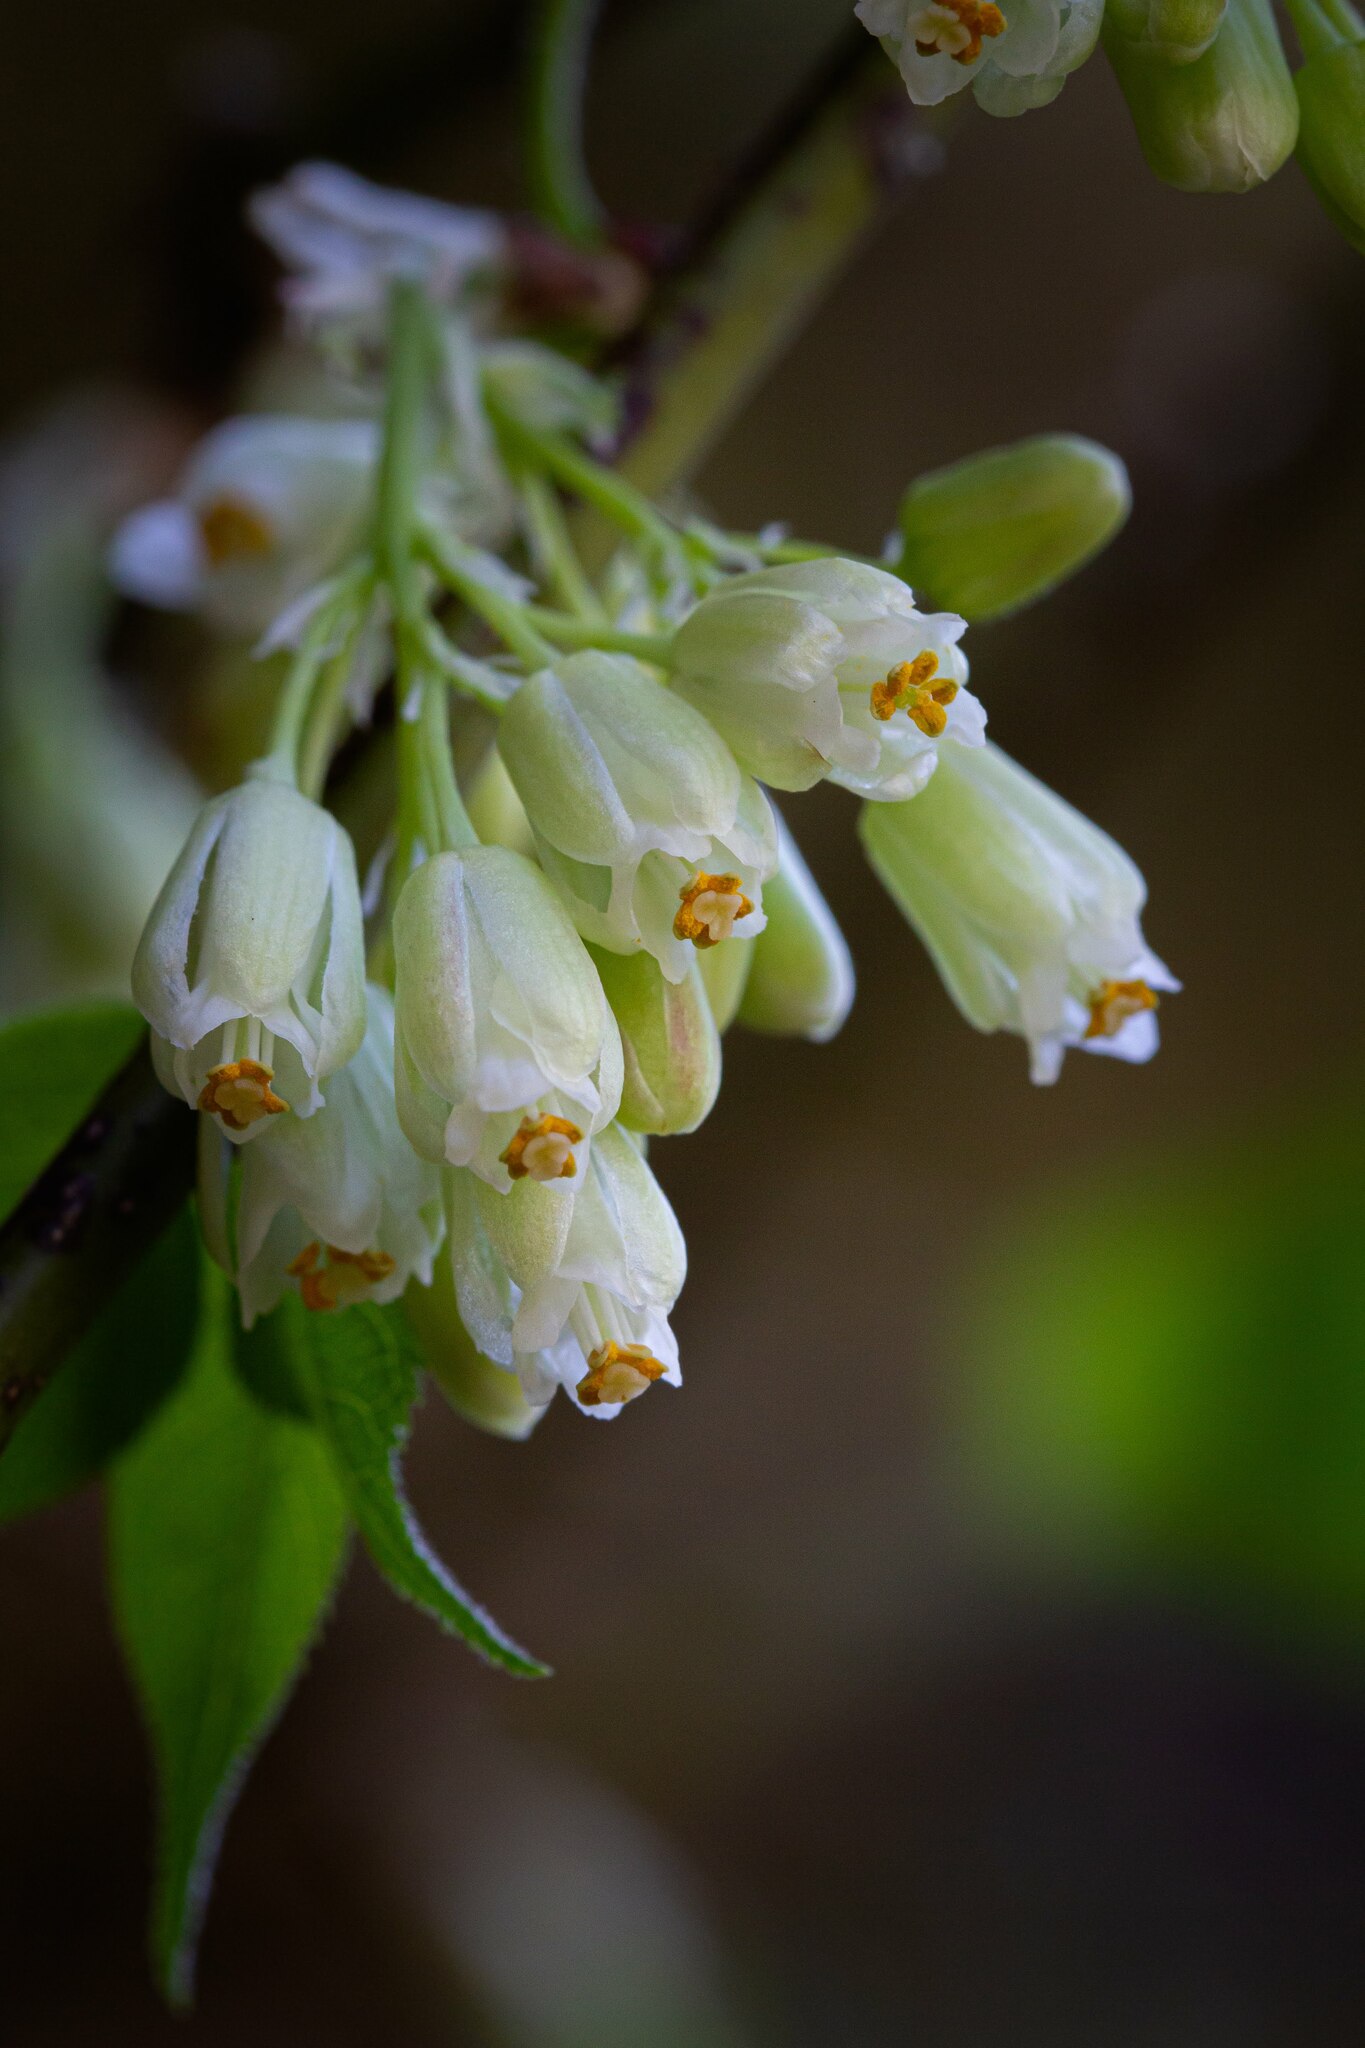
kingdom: Plantae
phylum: Tracheophyta
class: Magnoliopsida
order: Crossosomatales
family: Staphyleaceae
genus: Staphylea
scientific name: Staphylea trifolia
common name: American bladdernut
